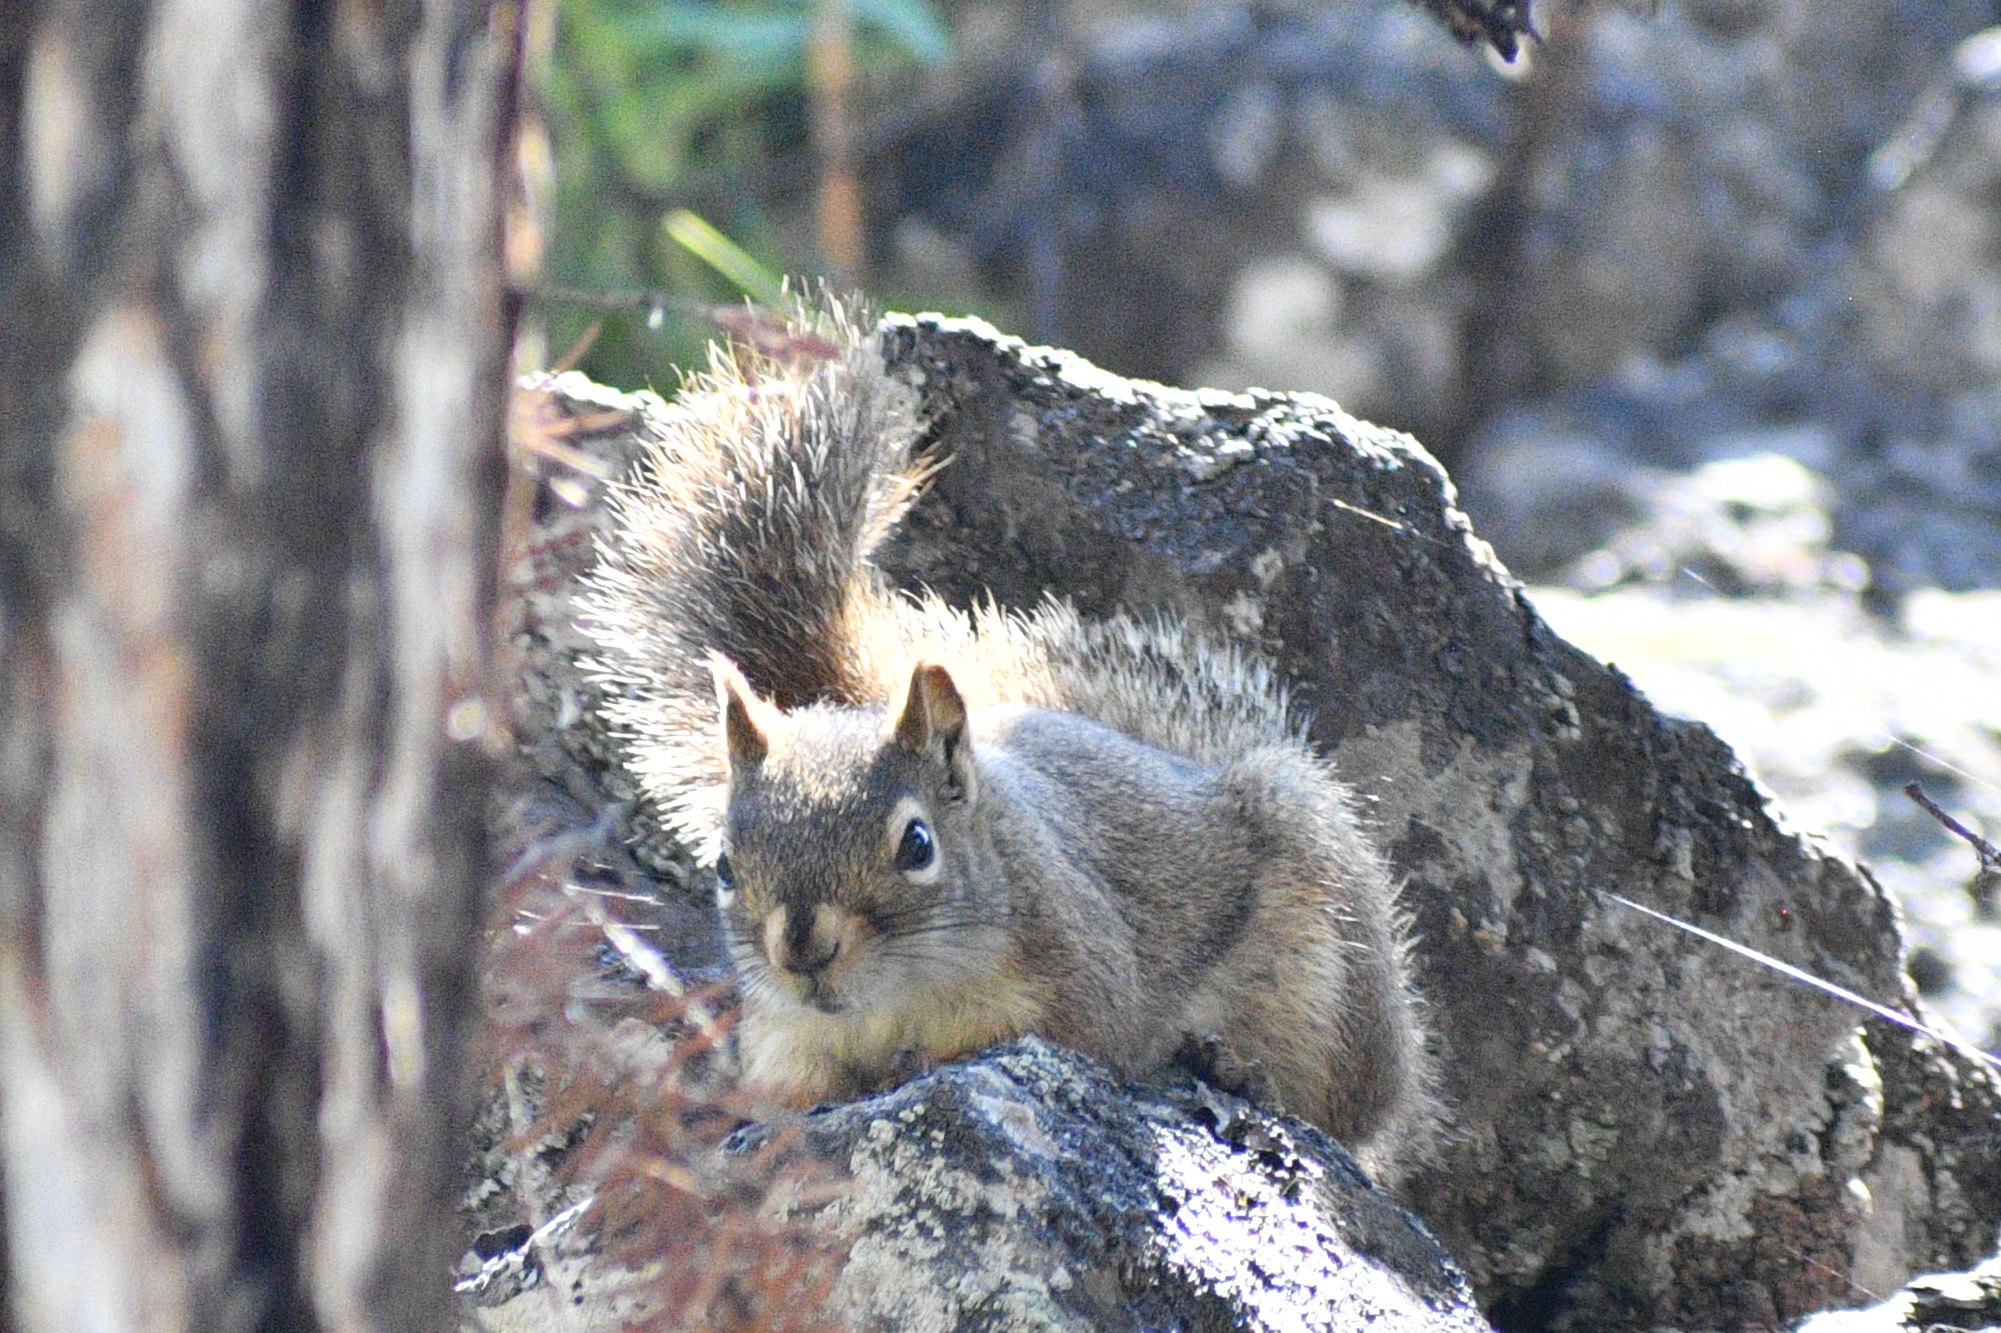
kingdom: Animalia
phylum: Chordata
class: Mammalia
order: Rodentia
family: Sciuridae
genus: Tamiasciurus
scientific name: Tamiasciurus hudsonicus
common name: Red squirrel
